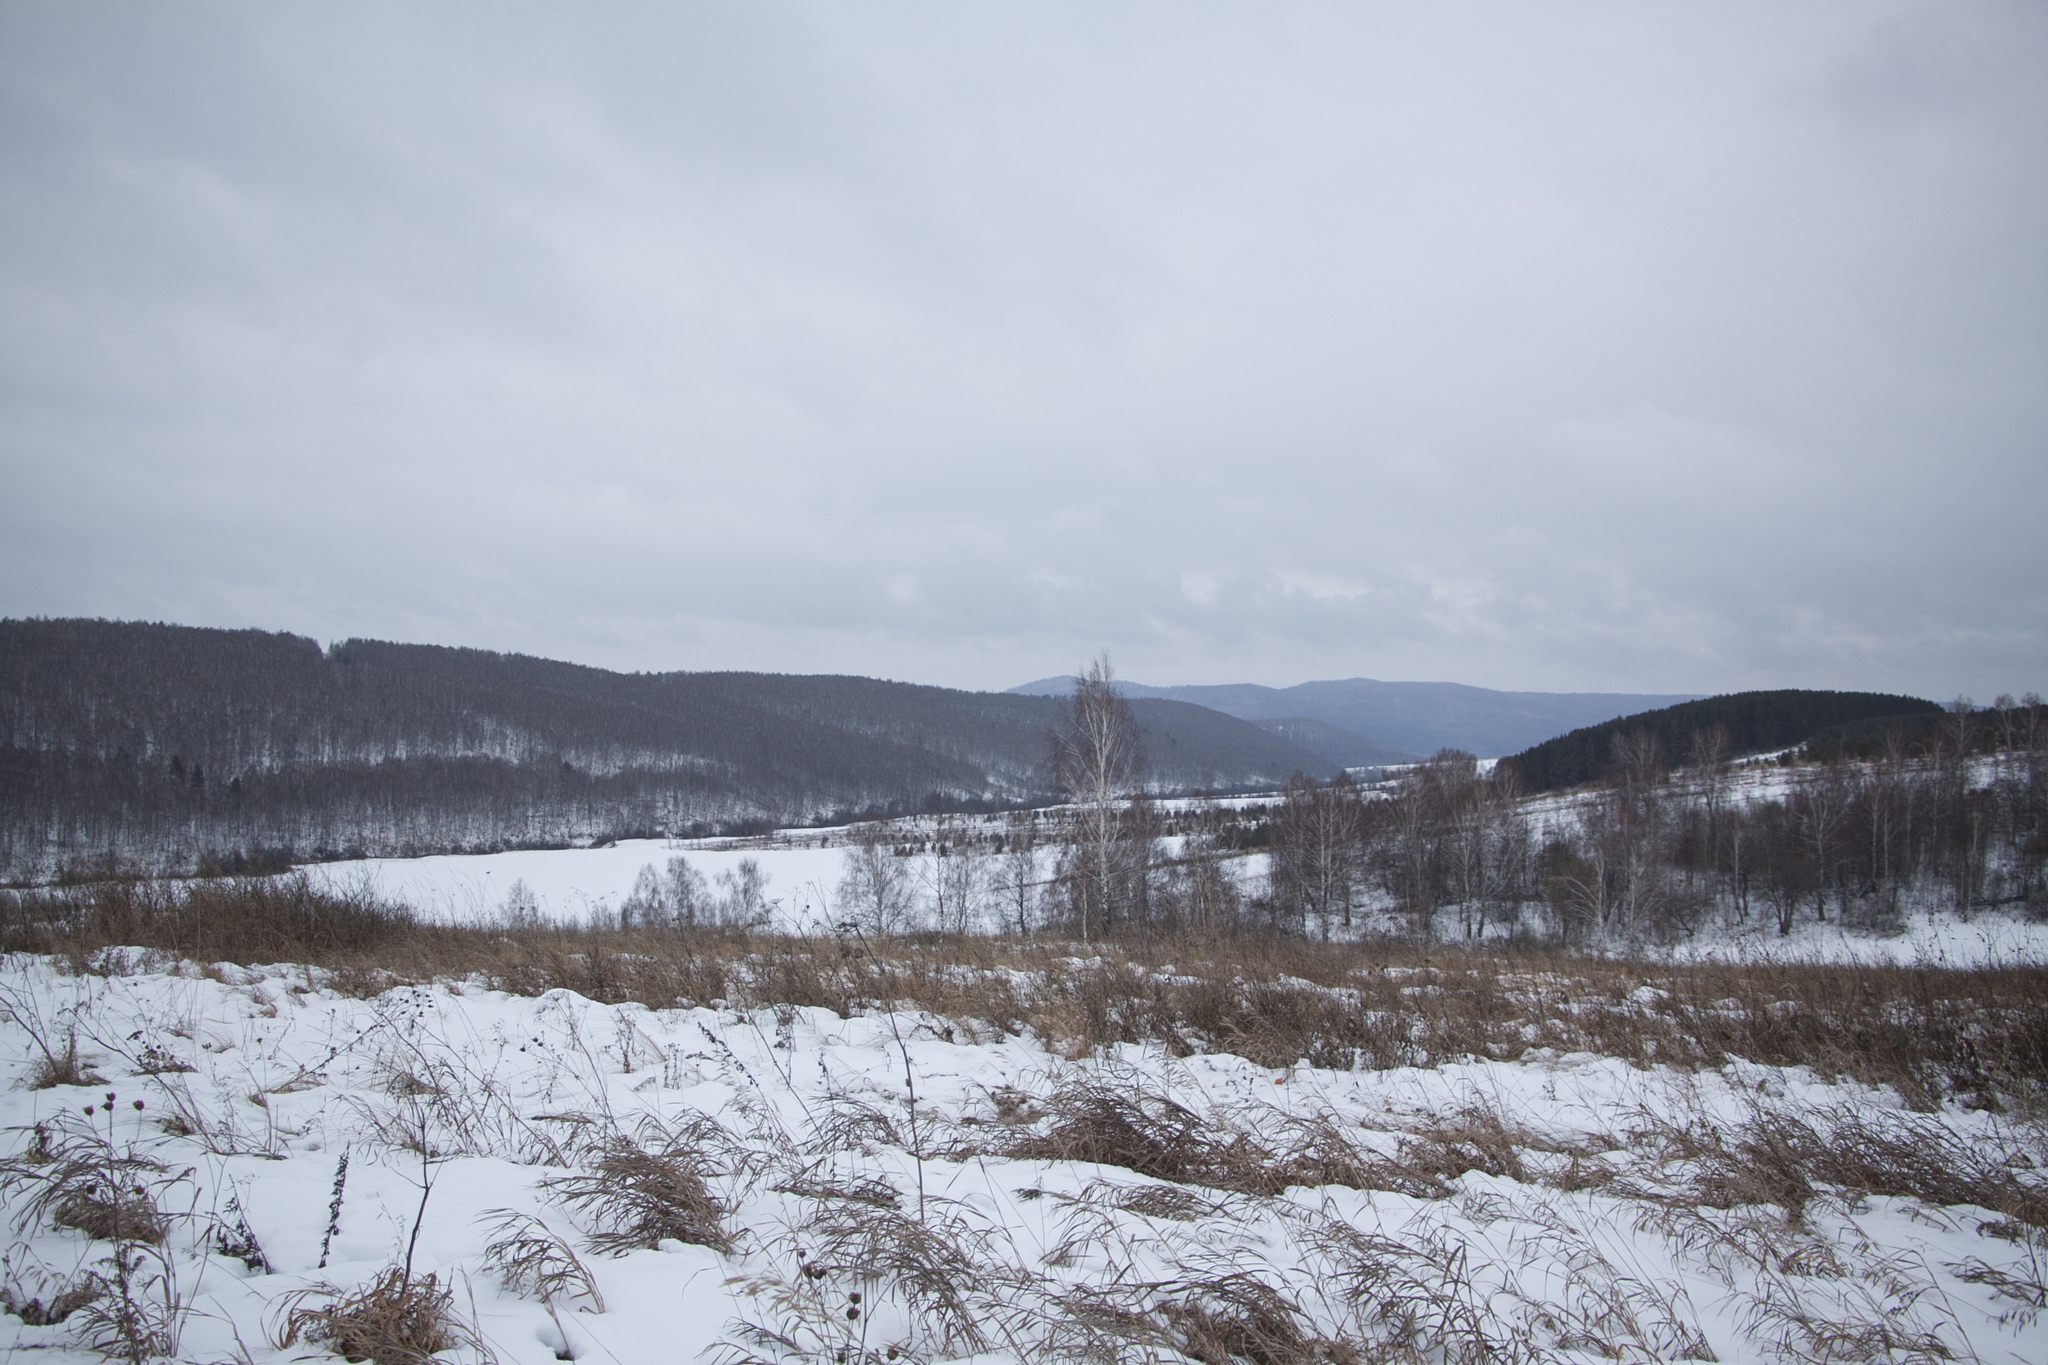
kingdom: Plantae
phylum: Tracheophyta
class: Magnoliopsida
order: Fagales
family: Betulaceae
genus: Betula
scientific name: Betula pendula
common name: Silver birch
